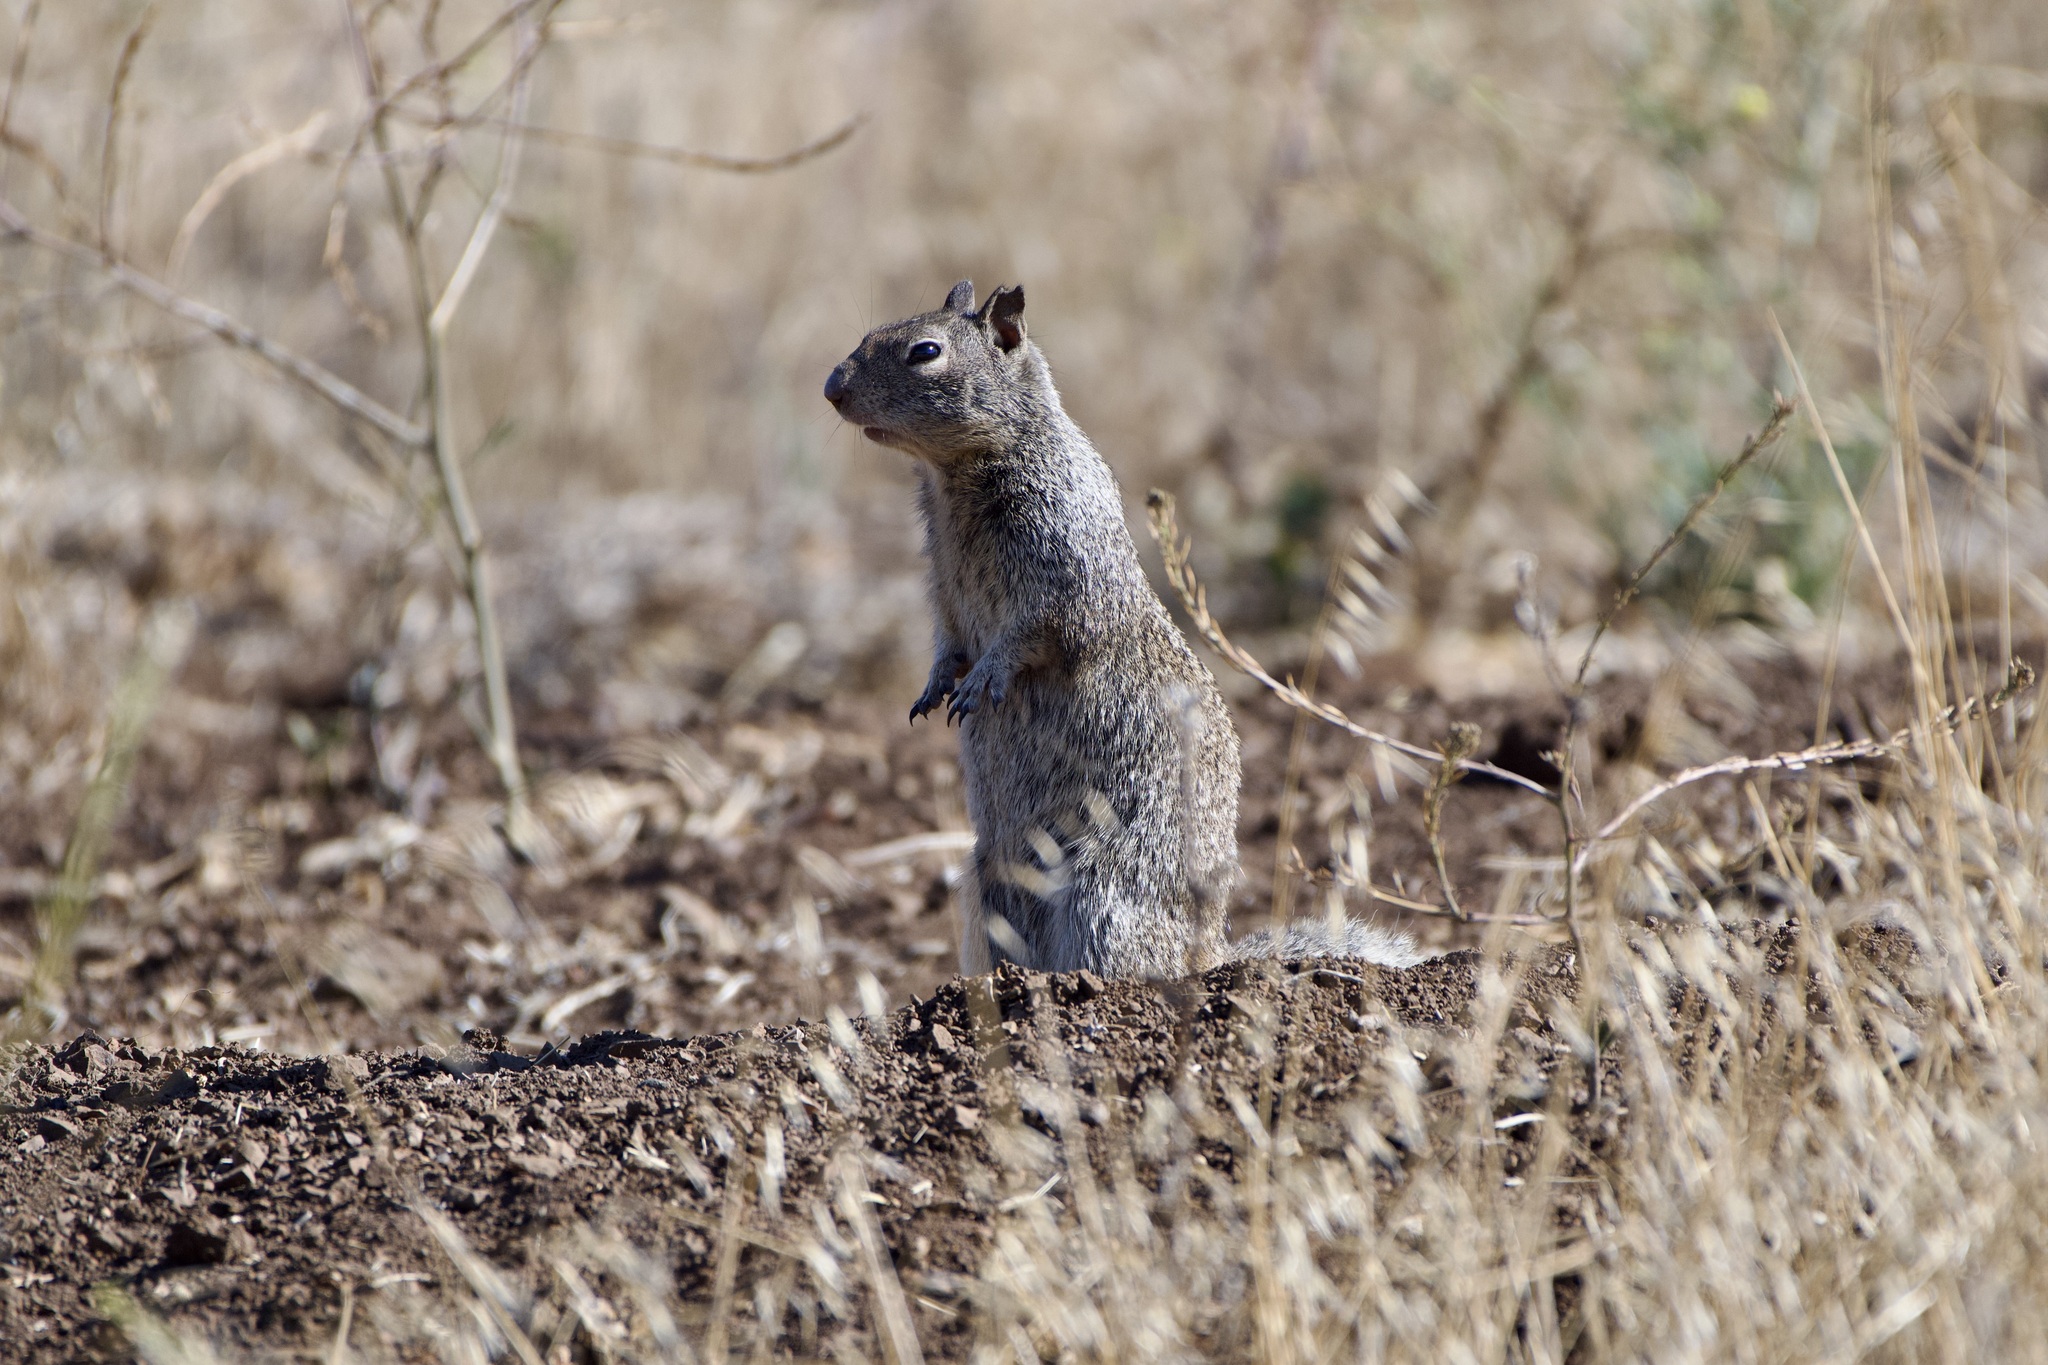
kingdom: Animalia
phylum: Chordata
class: Mammalia
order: Rodentia
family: Sciuridae
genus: Otospermophilus
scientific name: Otospermophilus beecheyi
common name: California ground squirrel
